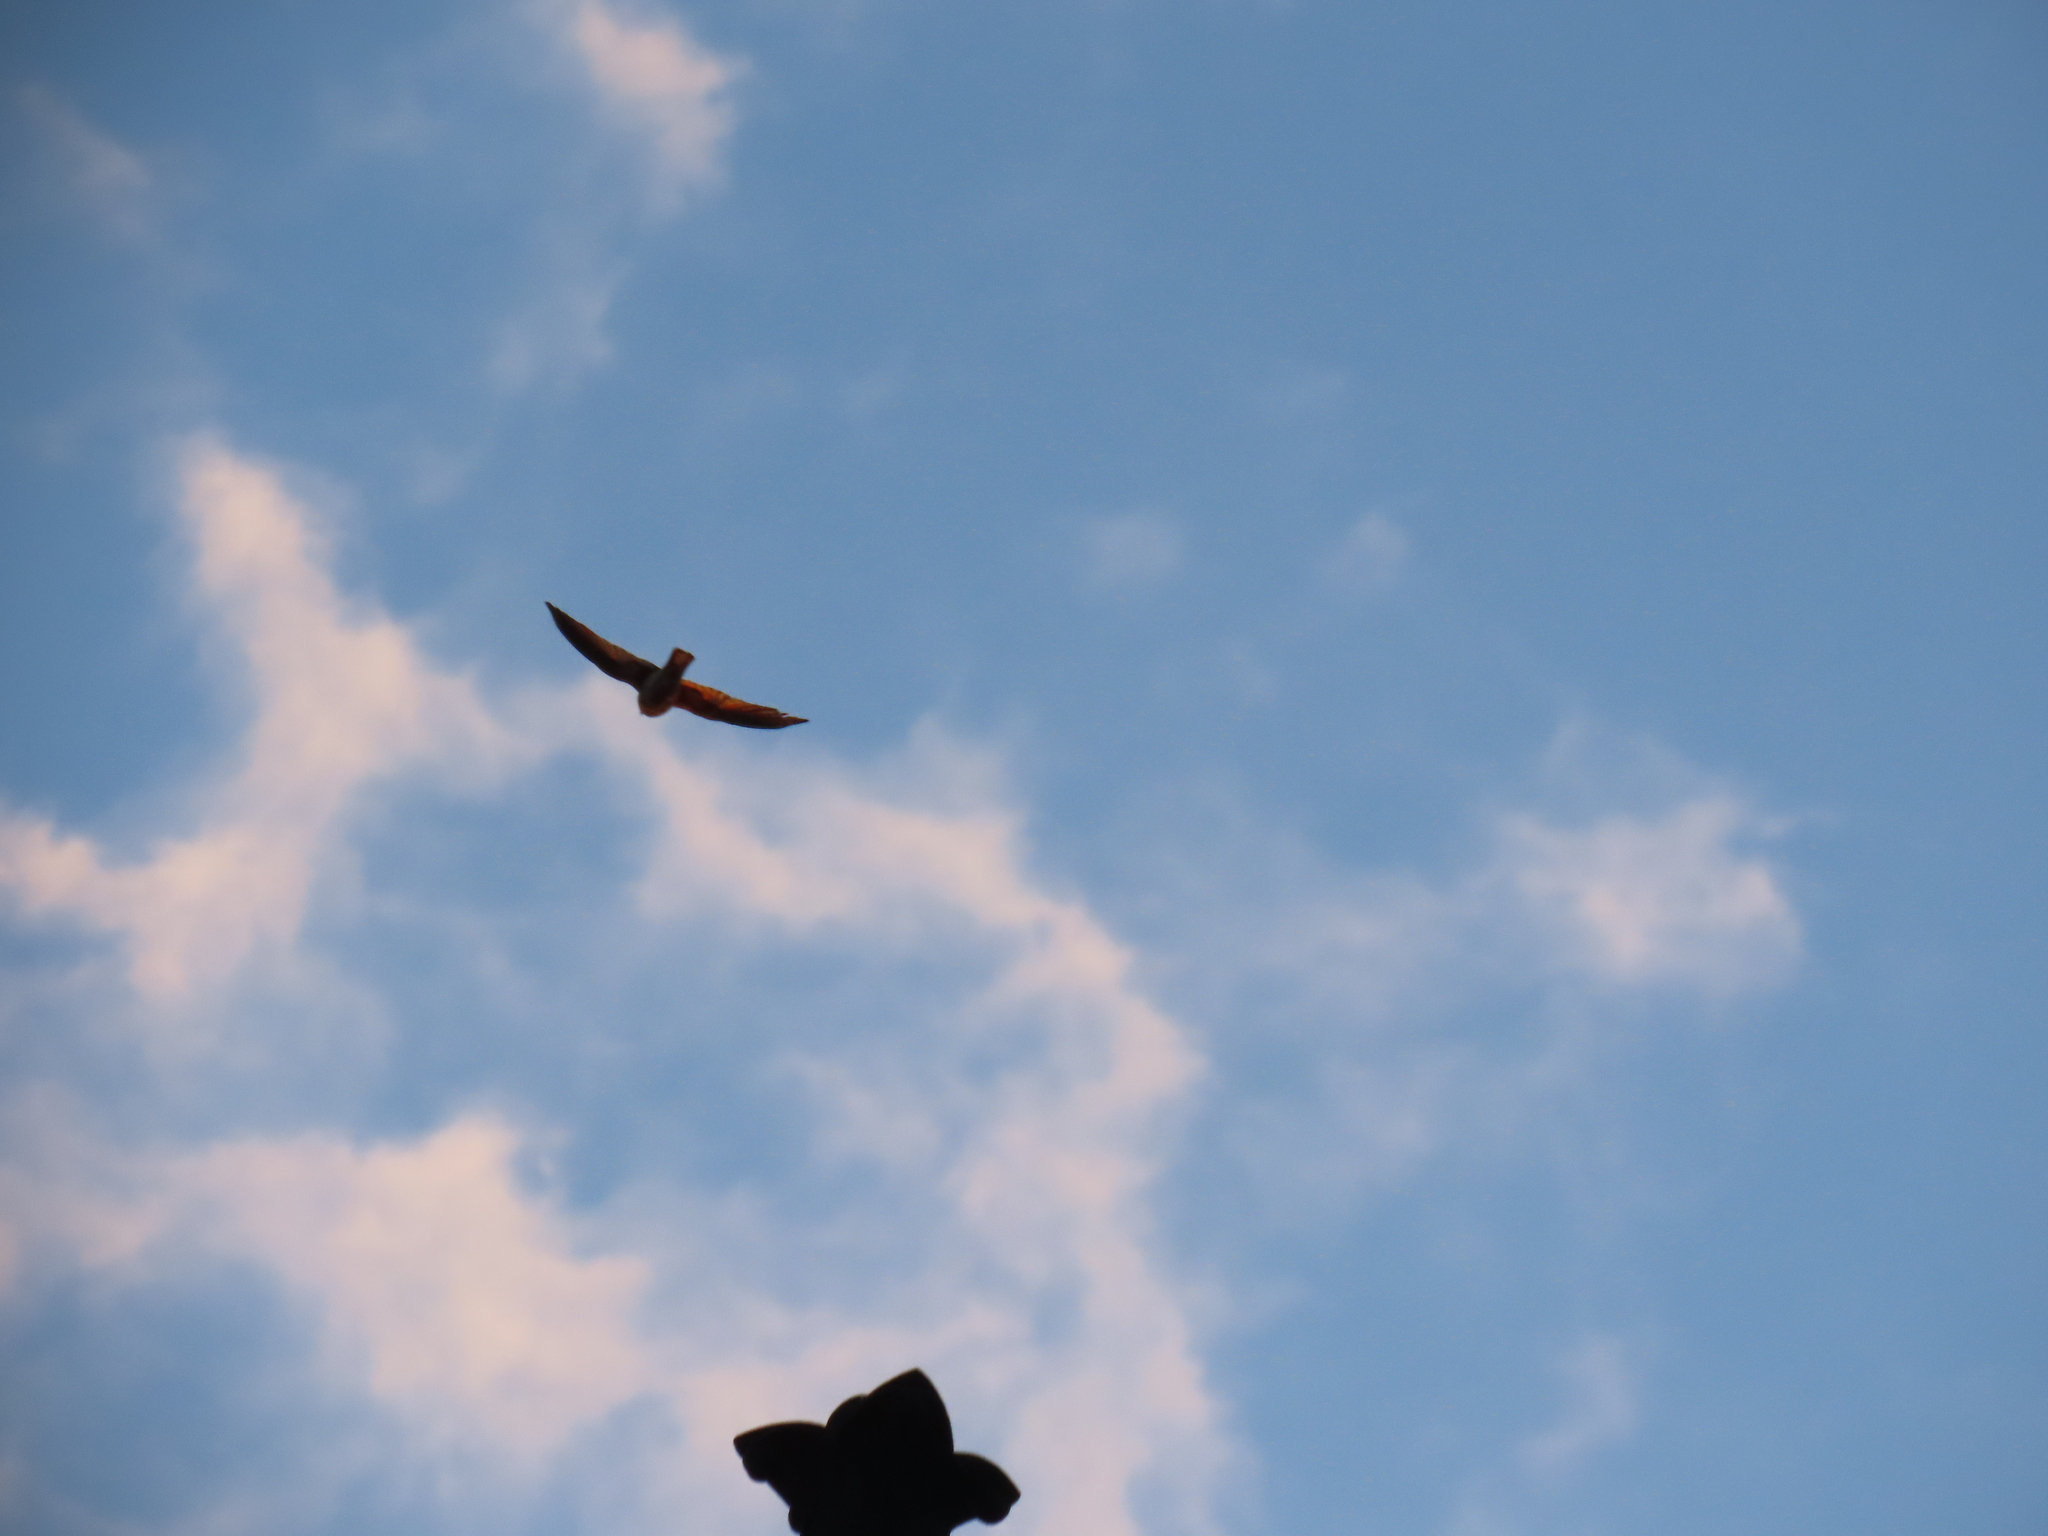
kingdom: Animalia
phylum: Chordata
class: Aves
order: Falconiformes
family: Falconidae
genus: Falco
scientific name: Falco sparverius
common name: American kestrel
